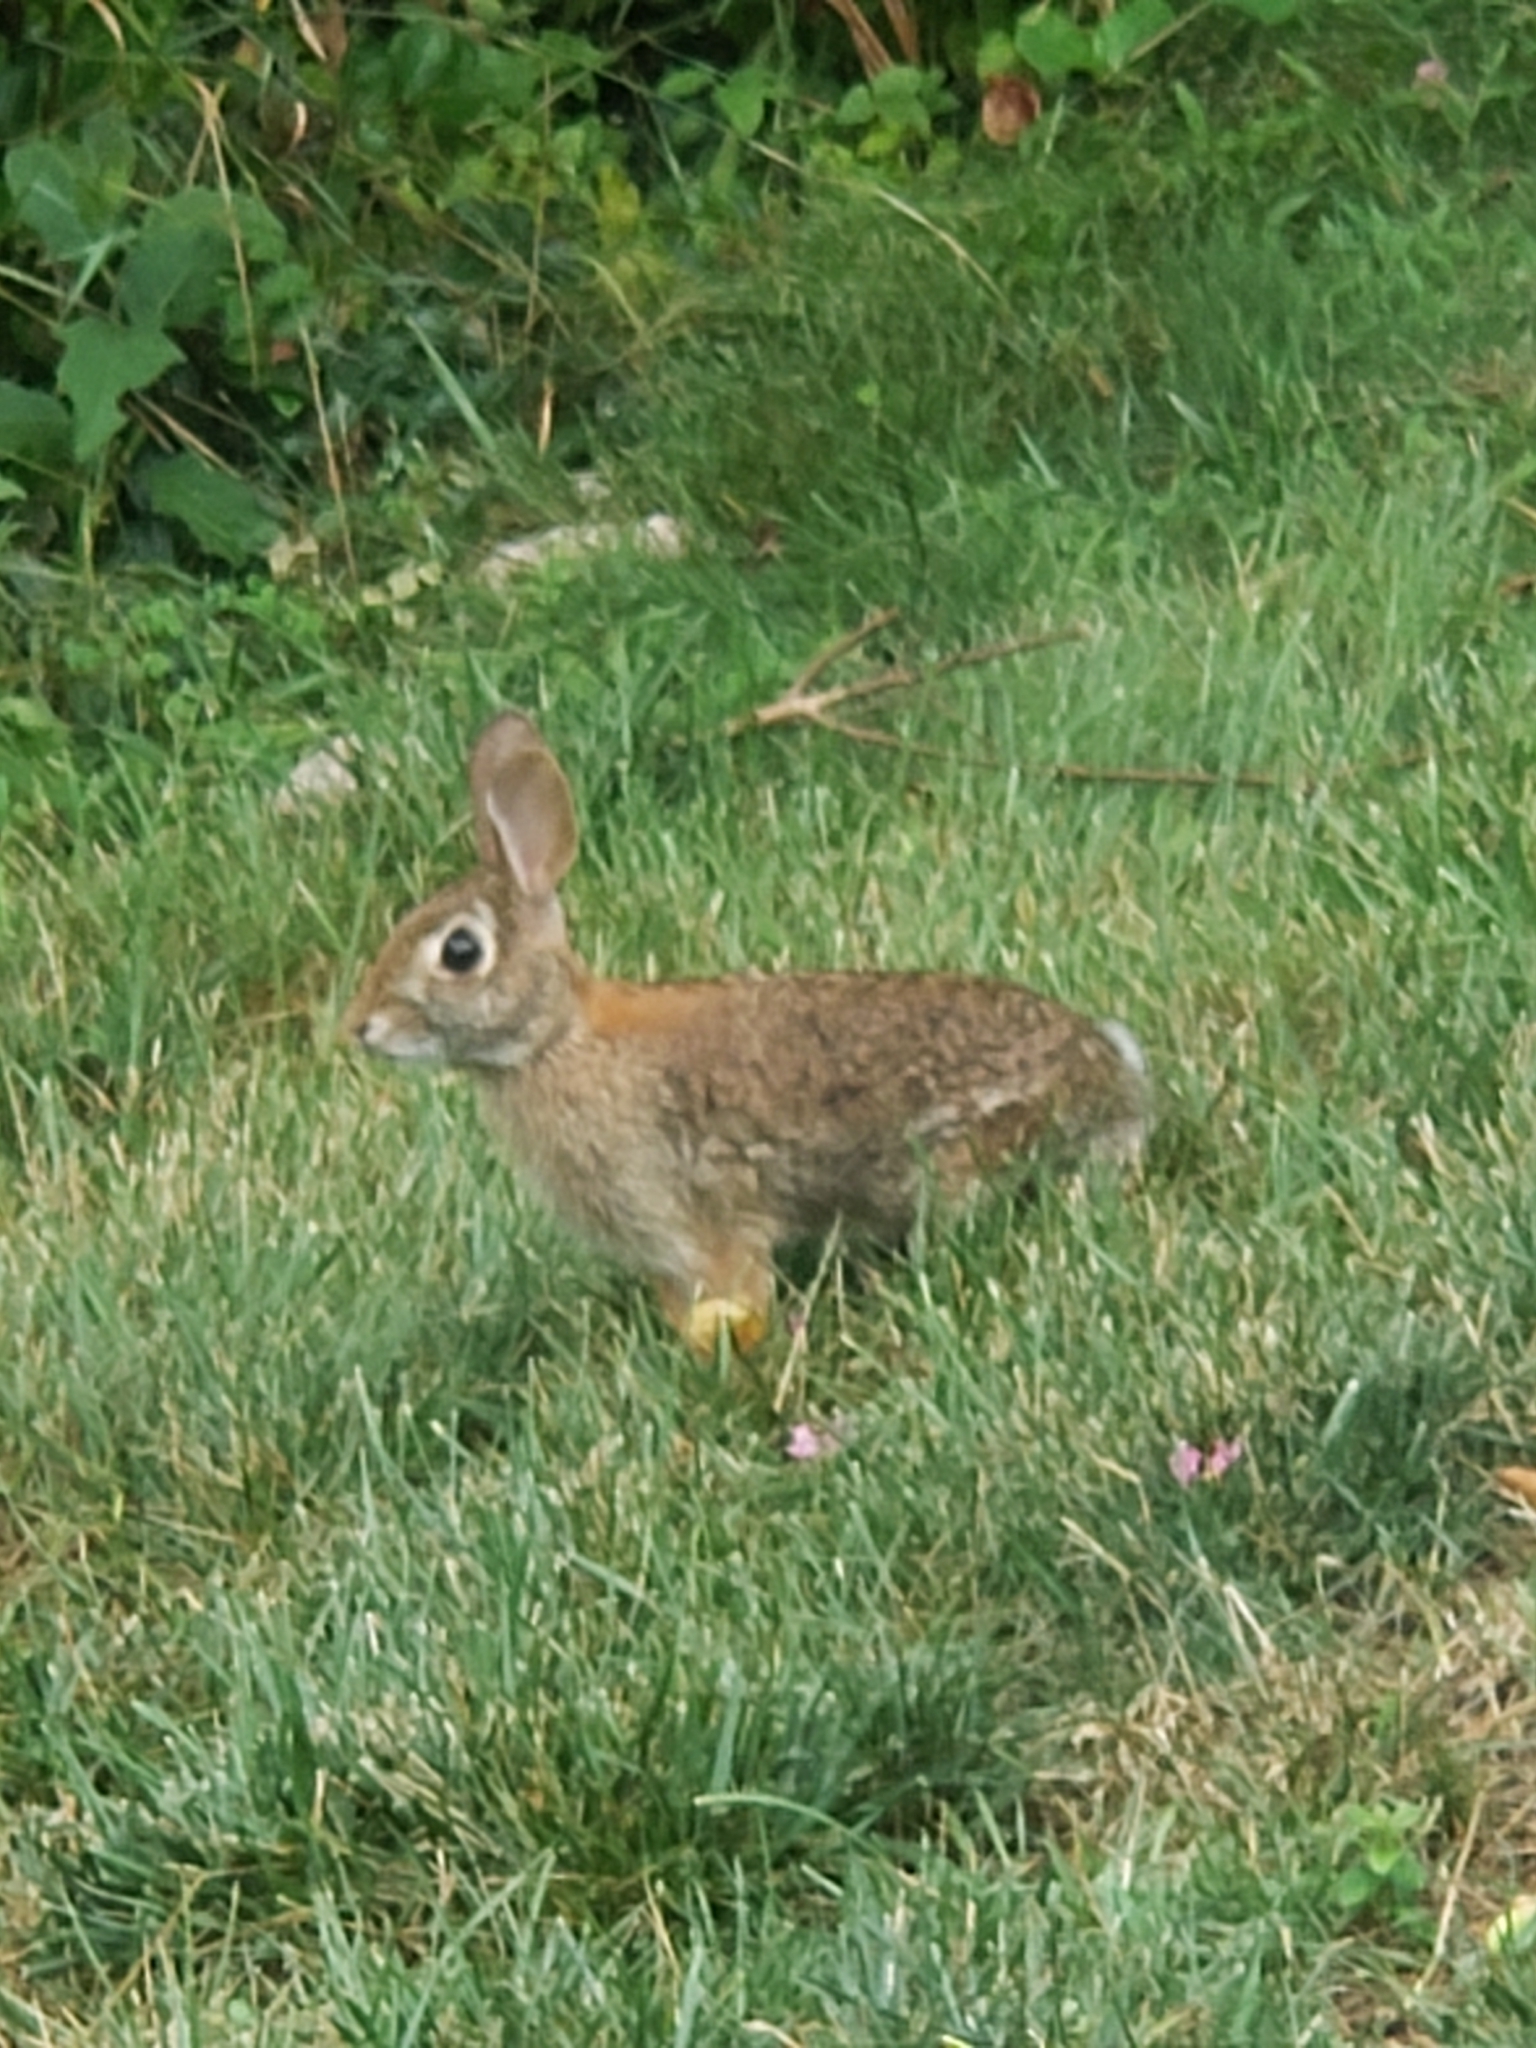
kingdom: Animalia
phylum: Chordata
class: Mammalia
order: Lagomorpha
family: Leporidae
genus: Sylvilagus
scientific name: Sylvilagus floridanus
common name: Eastern cottontail
